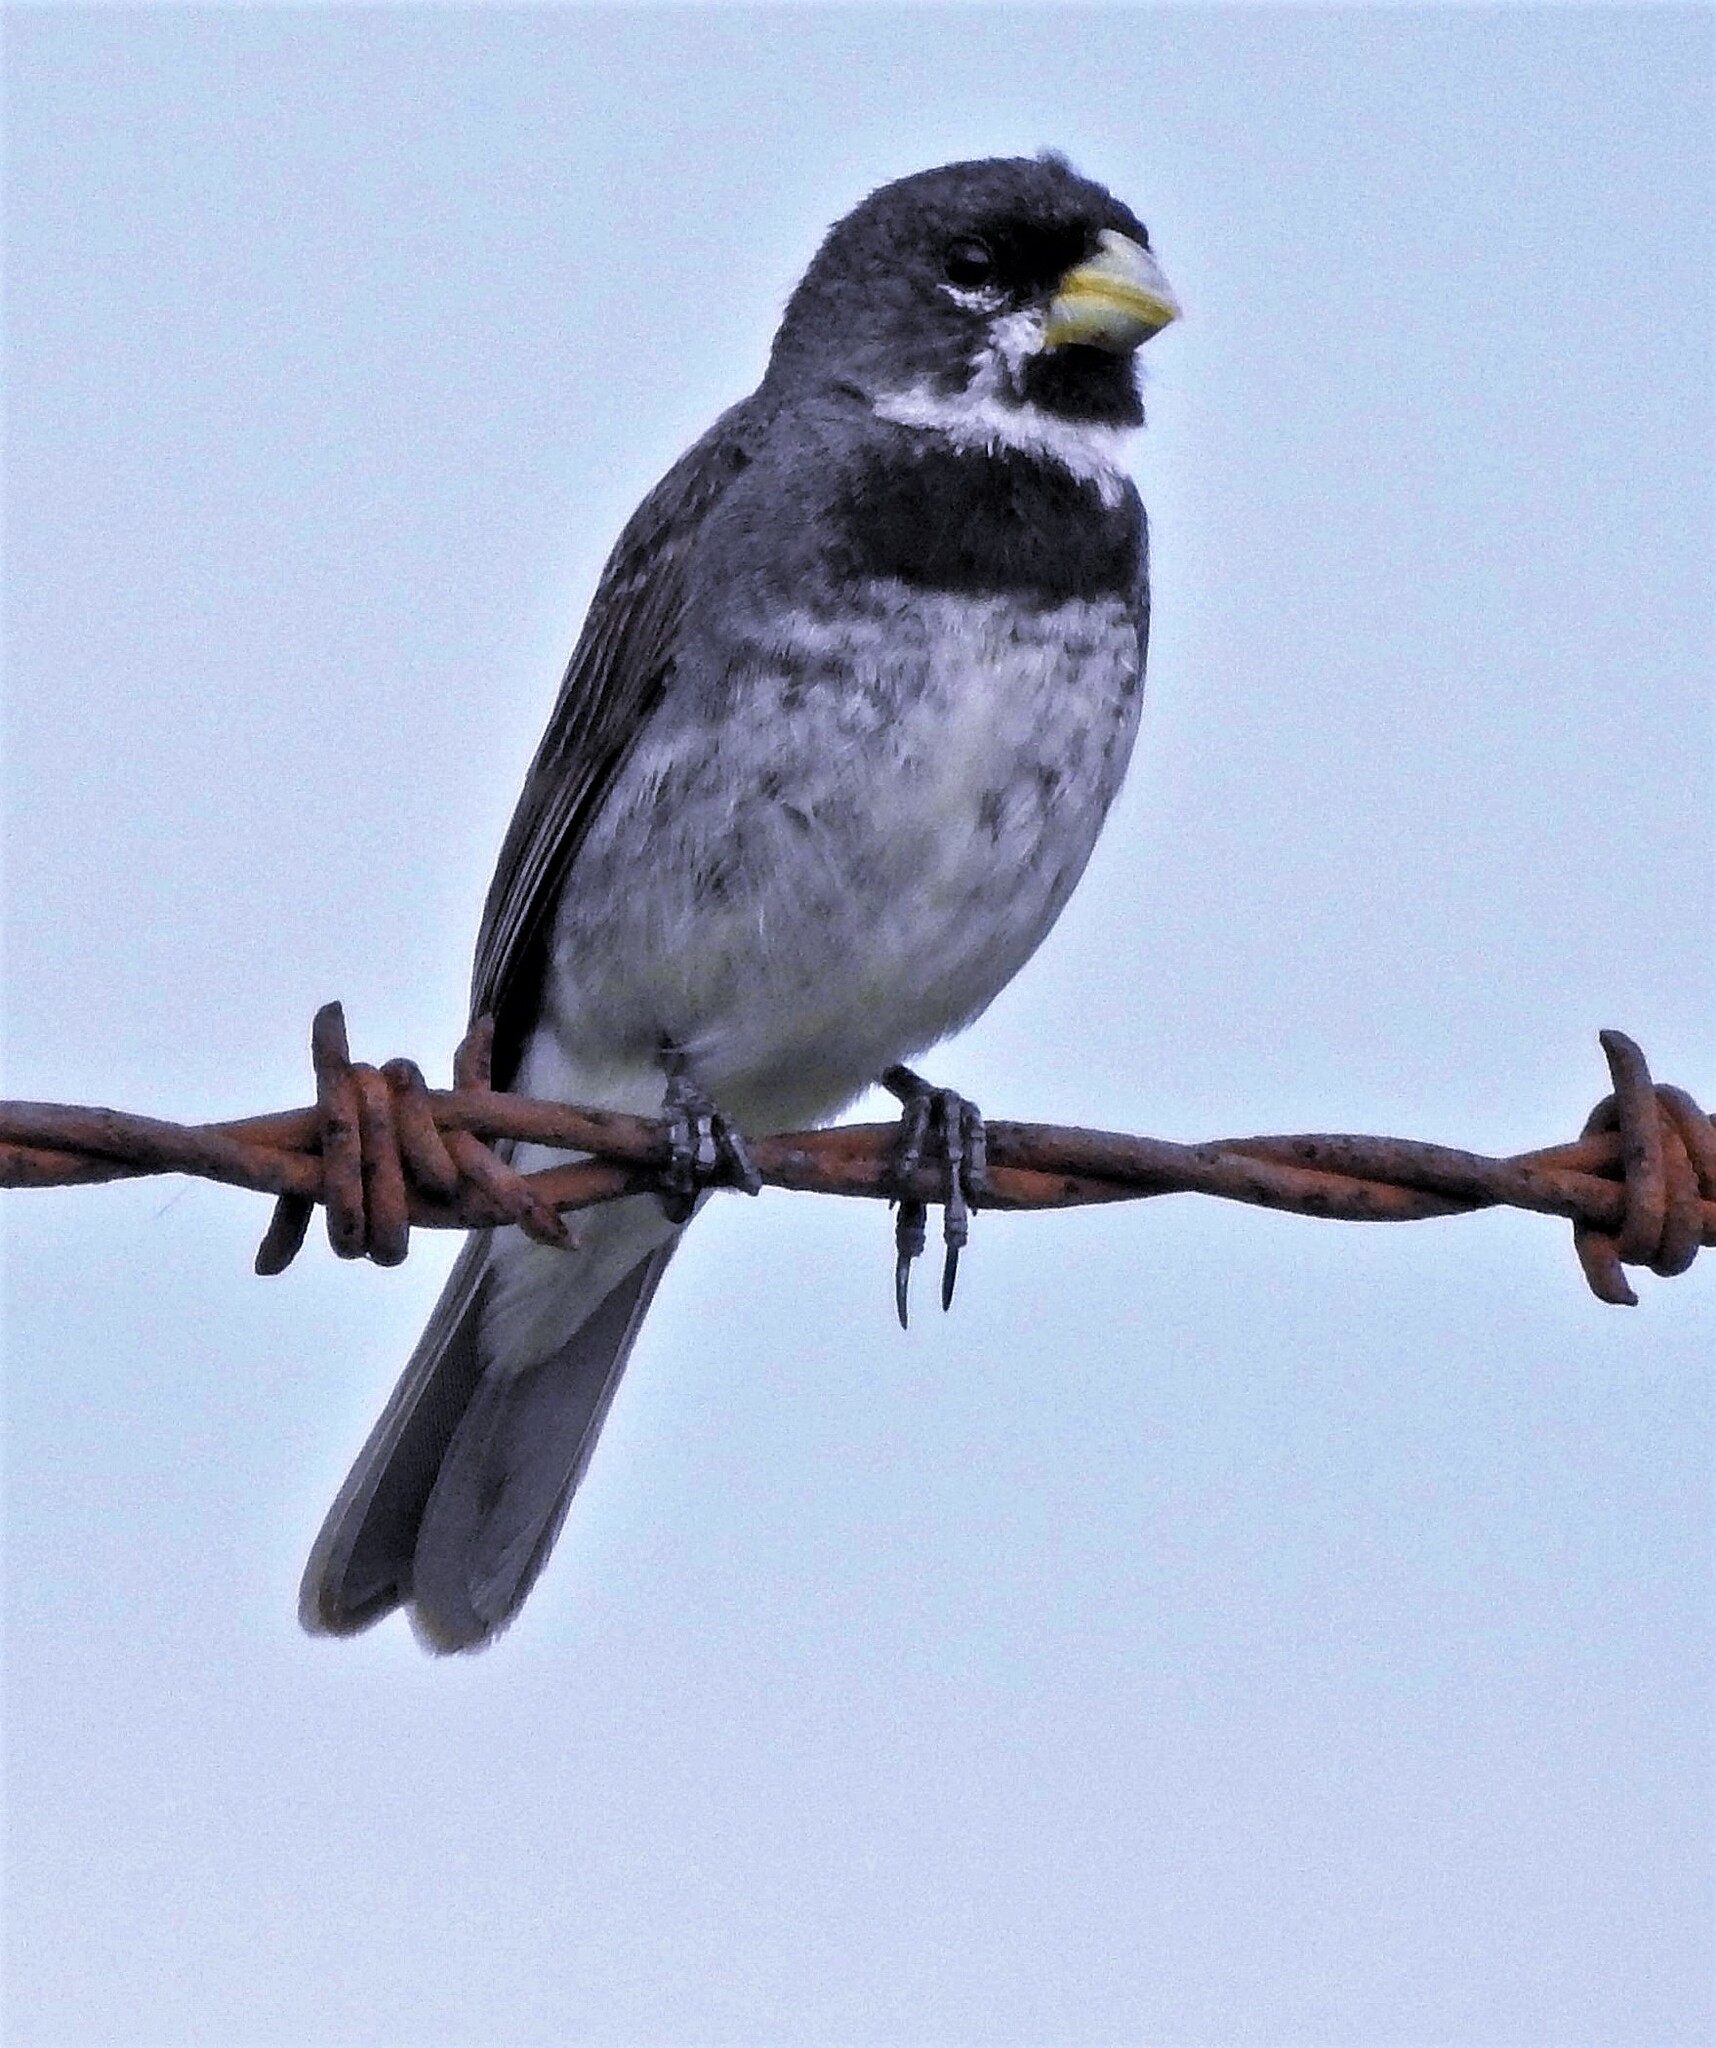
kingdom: Animalia
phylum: Chordata
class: Aves
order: Passeriformes
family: Thraupidae
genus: Sporophila
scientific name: Sporophila caerulescens
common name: Double-collared seedeater
